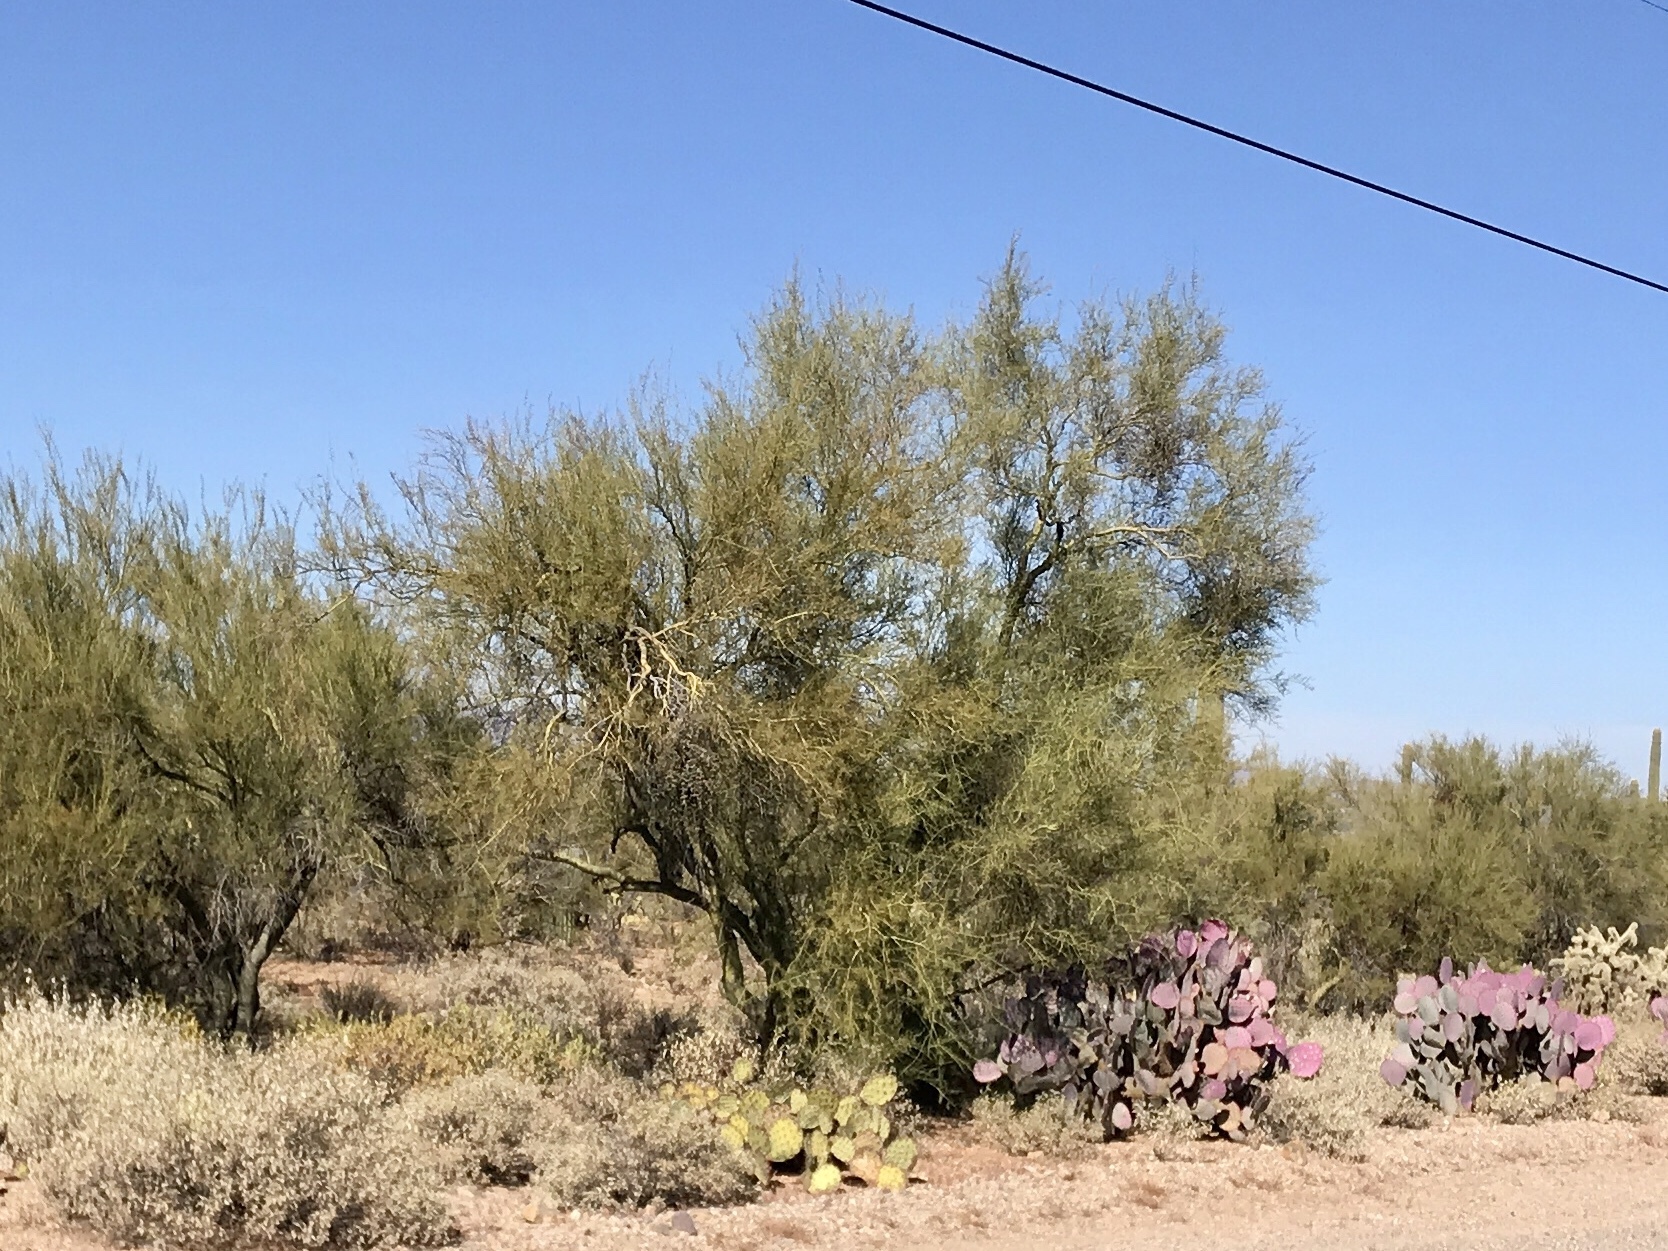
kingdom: Plantae
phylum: Tracheophyta
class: Magnoliopsida
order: Fabales
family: Fabaceae
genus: Parkinsonia
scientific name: Parkinsonia florida
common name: Blue paloverde
